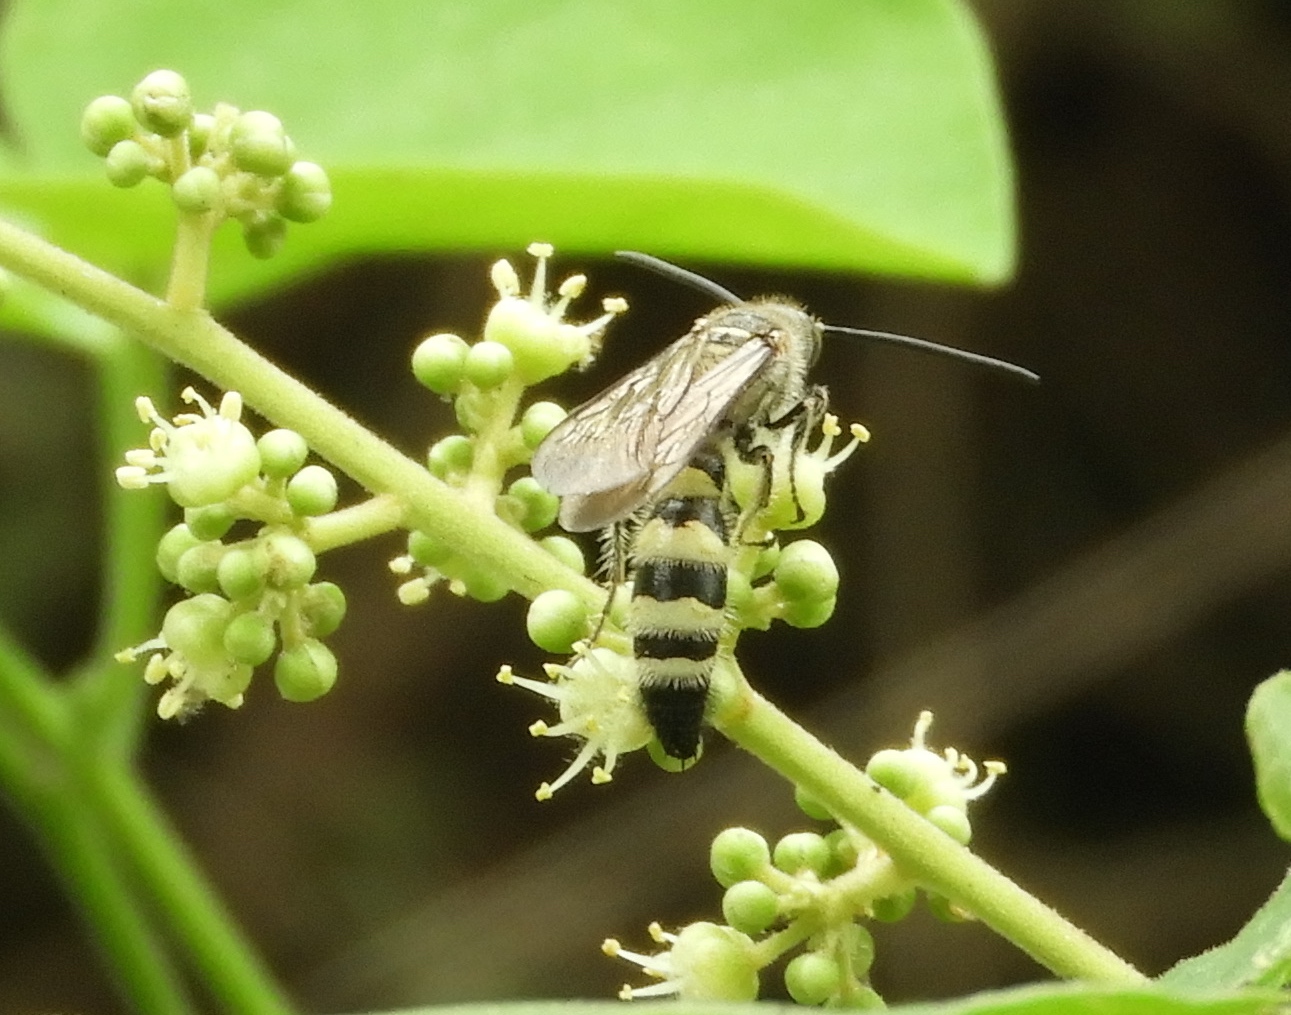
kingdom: Animalia
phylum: Arthropoda
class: Insecta
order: Hymenoptera
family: Scoliidae
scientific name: Scoliidae
